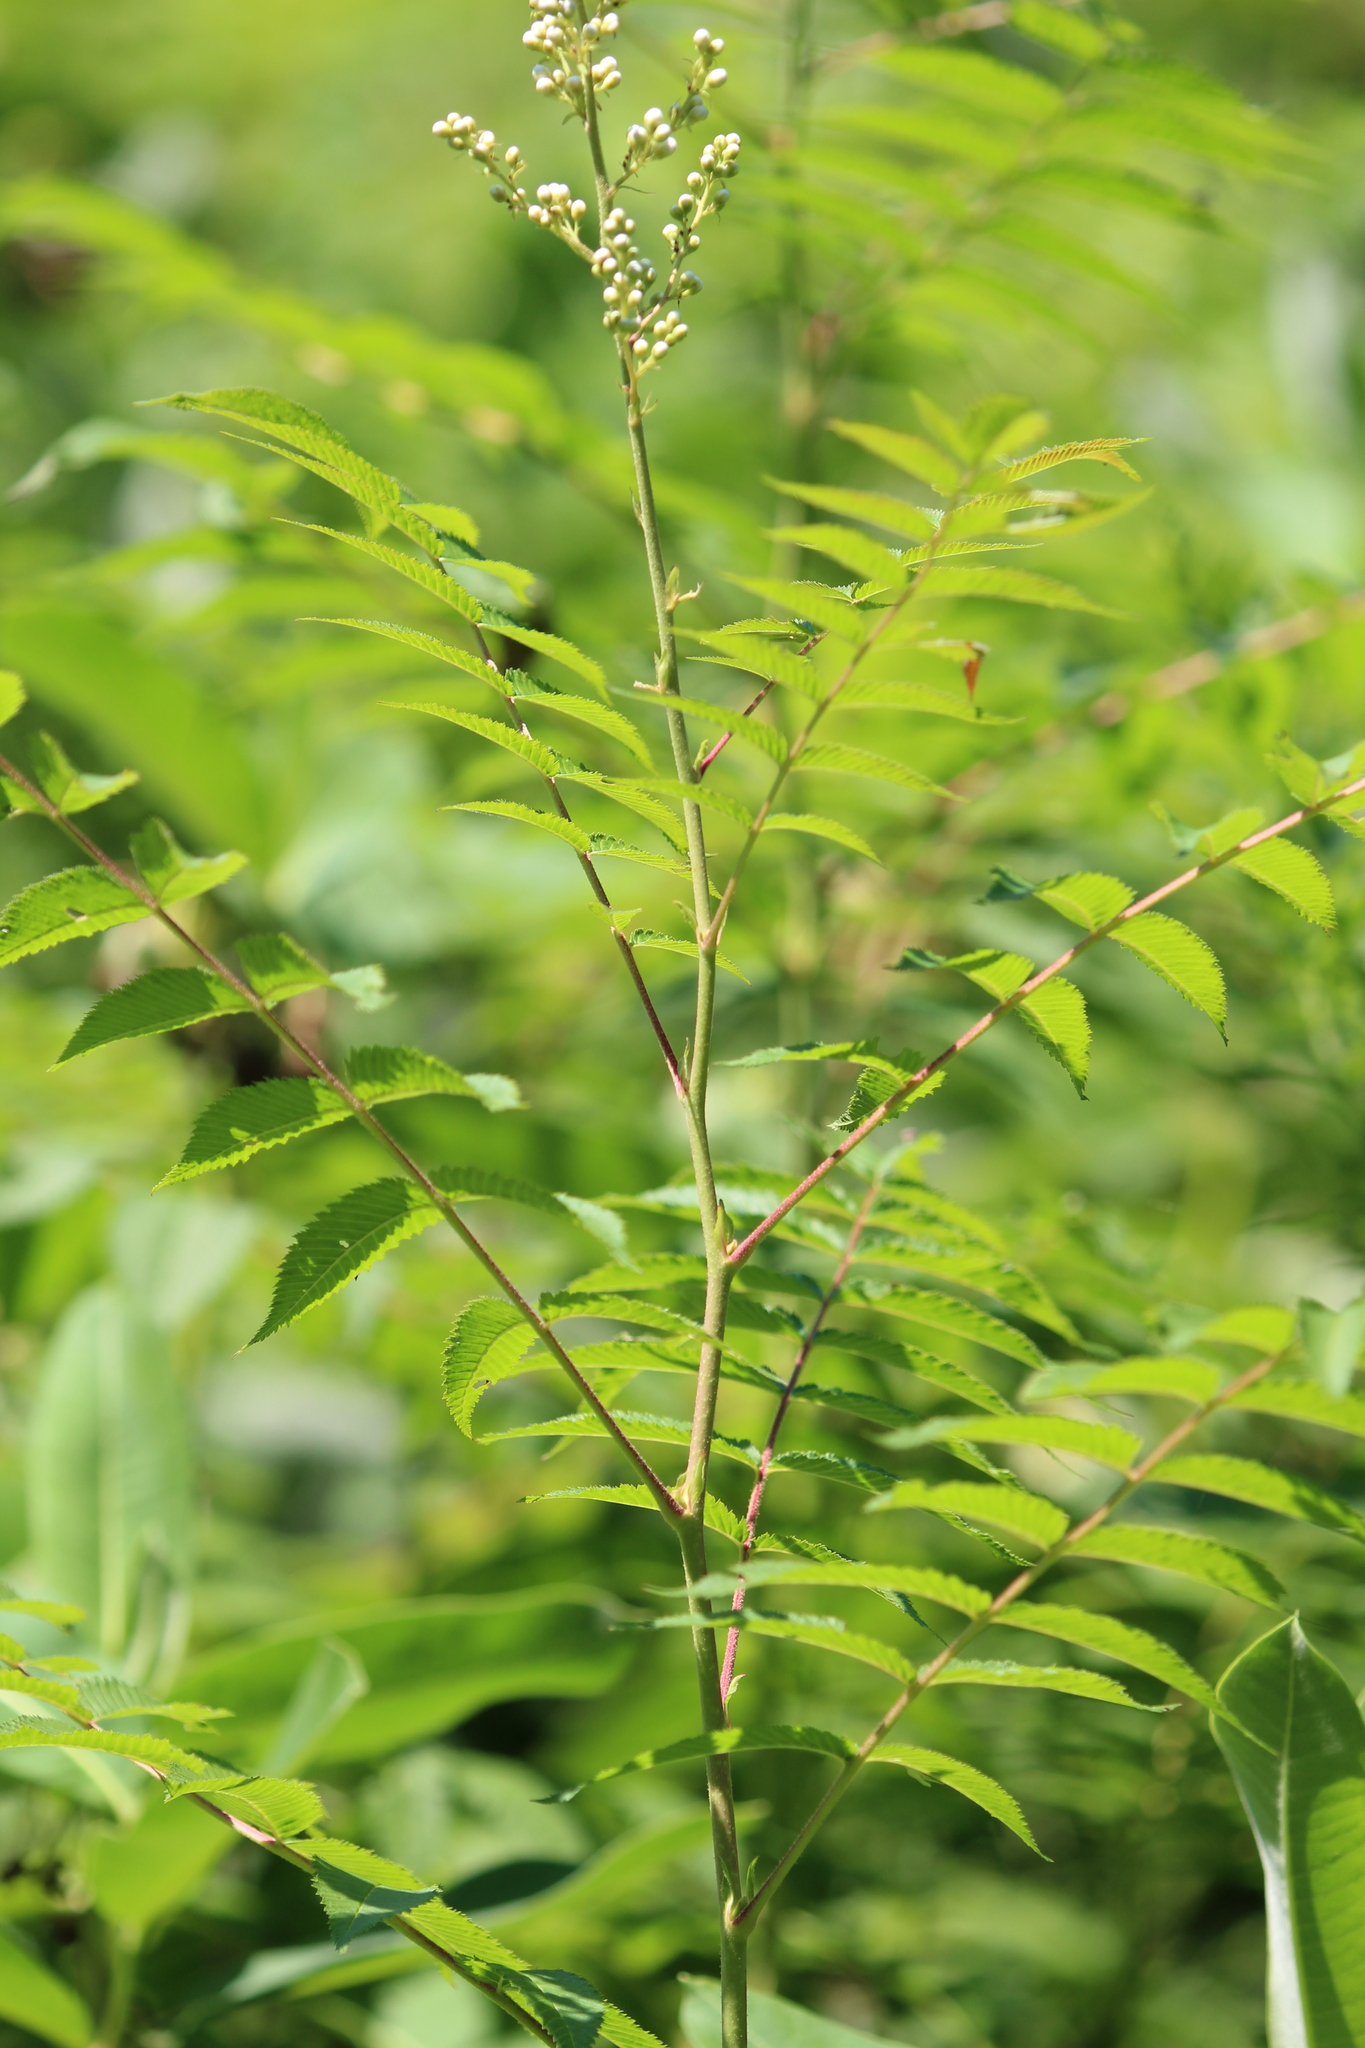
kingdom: Plantae
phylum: Tracheophyta
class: Magnoliopsida
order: Rosales
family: Rosaceae
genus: Sorbaria
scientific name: Sorbaria sorbifolia
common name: False spiraea
